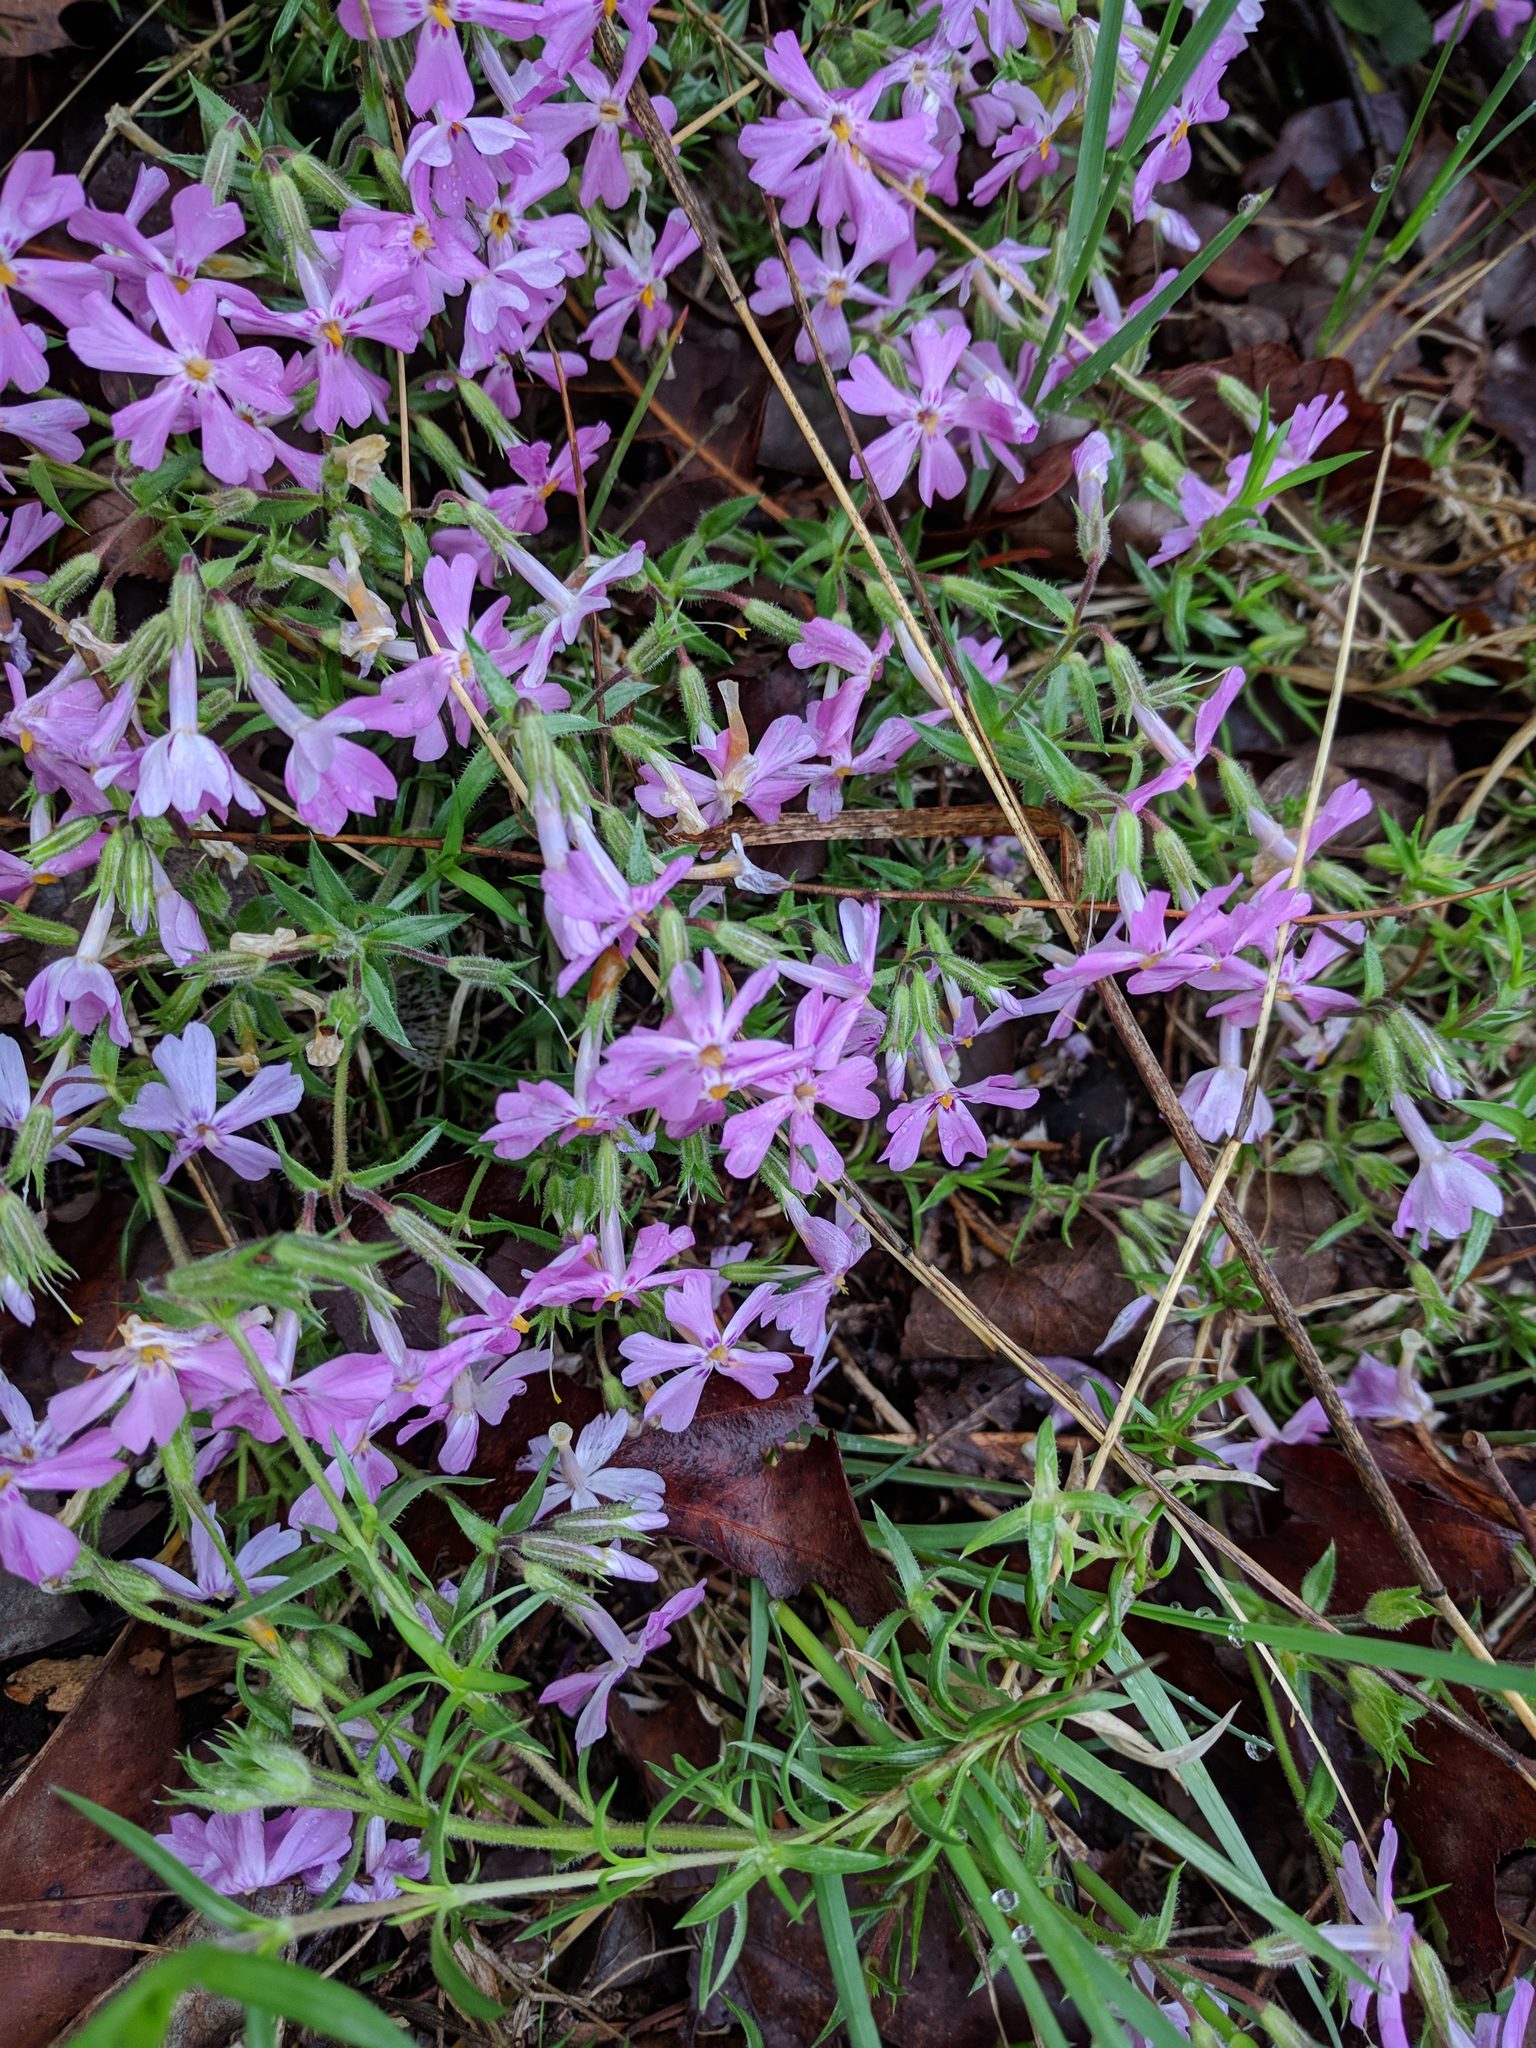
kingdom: Plantae
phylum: Tracheophyta
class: Magnoliopsida
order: Ericales
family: Polemoniaceae
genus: Phlox
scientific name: Phlox subulata
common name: Moss phlox
